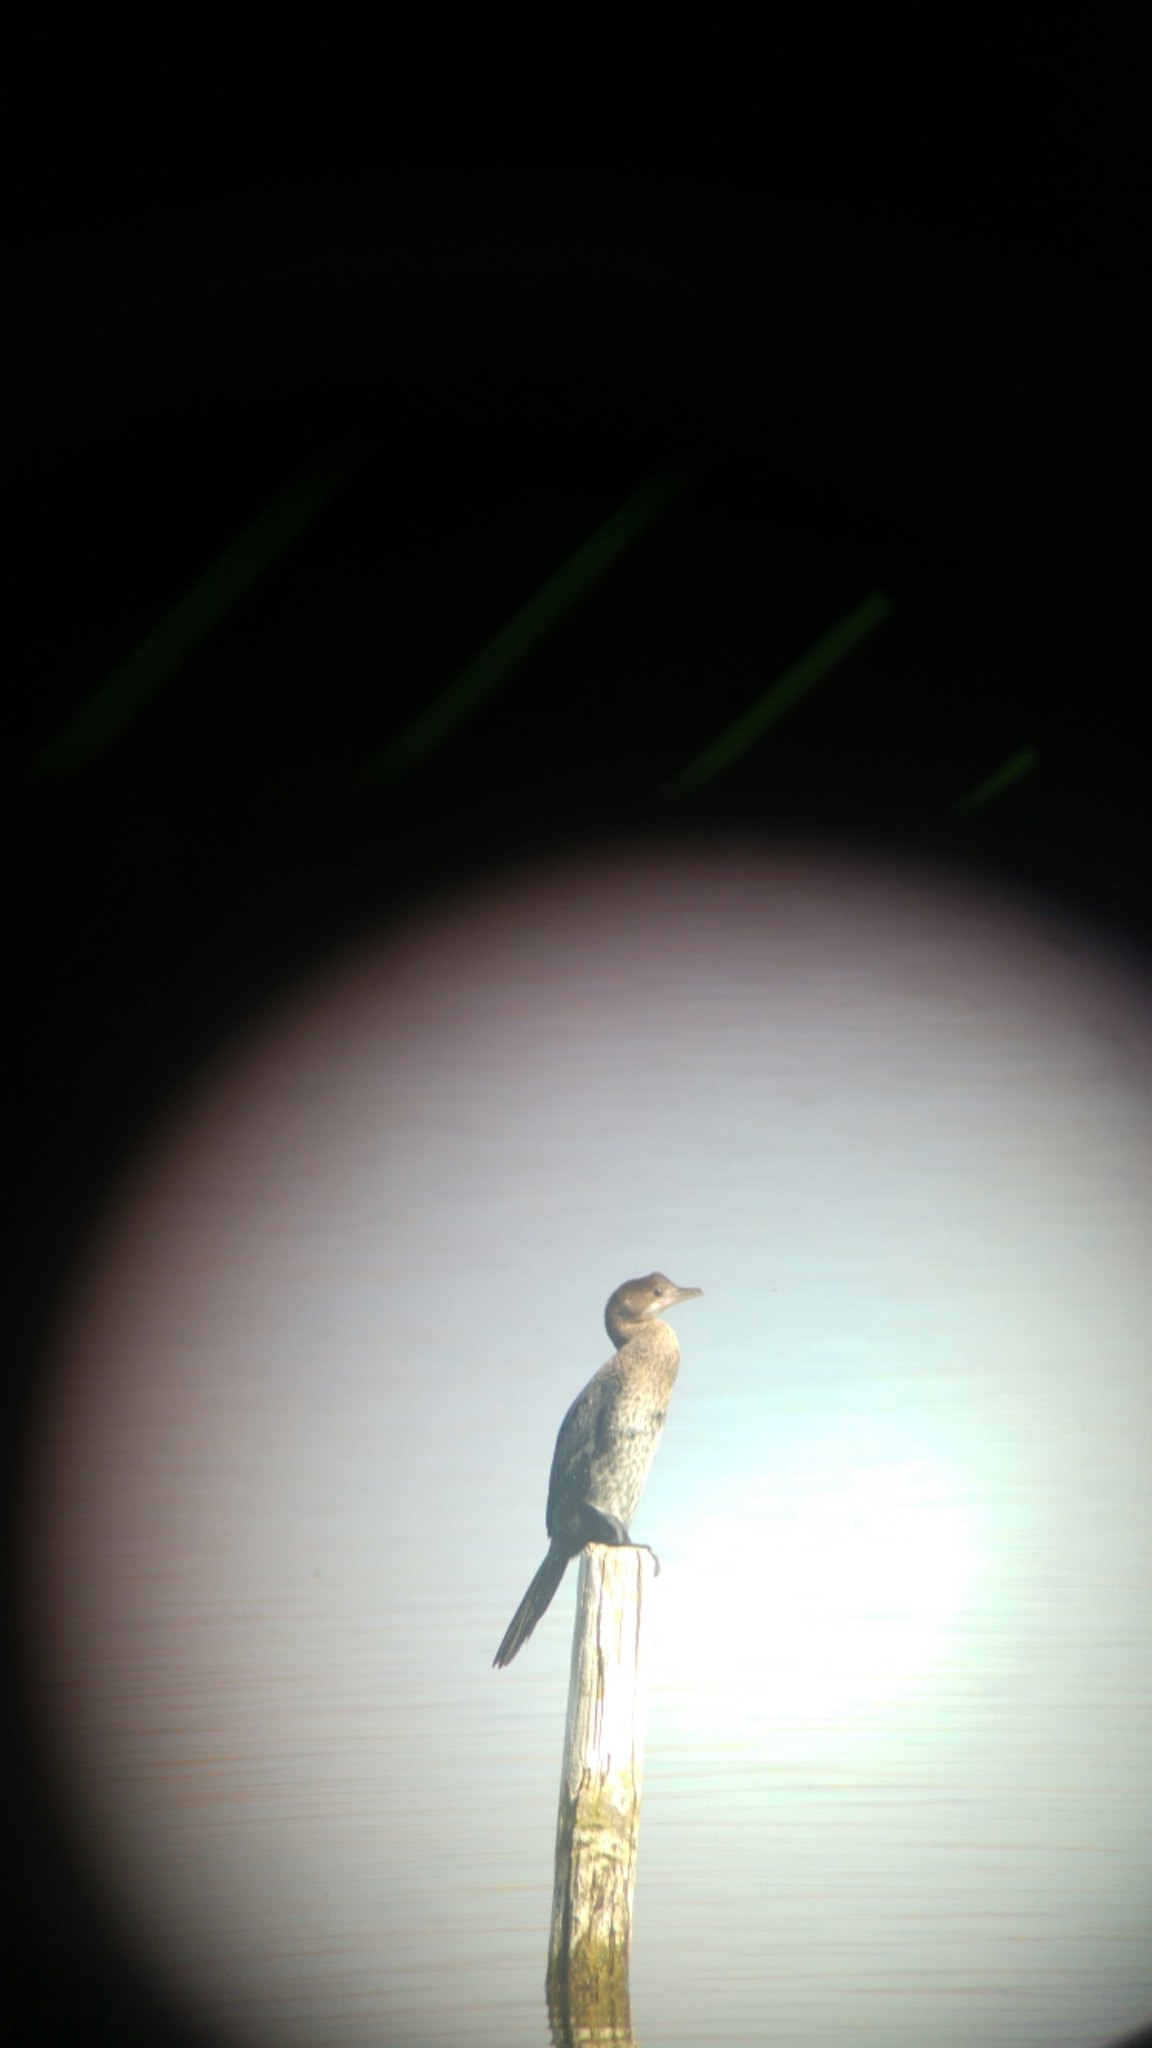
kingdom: Animalia
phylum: Chordata
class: Aves
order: Suliformes
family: Phalacrocoracidae
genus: Microcarbo
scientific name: Microcarbo pygmaeus
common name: Pygmy cormorant
